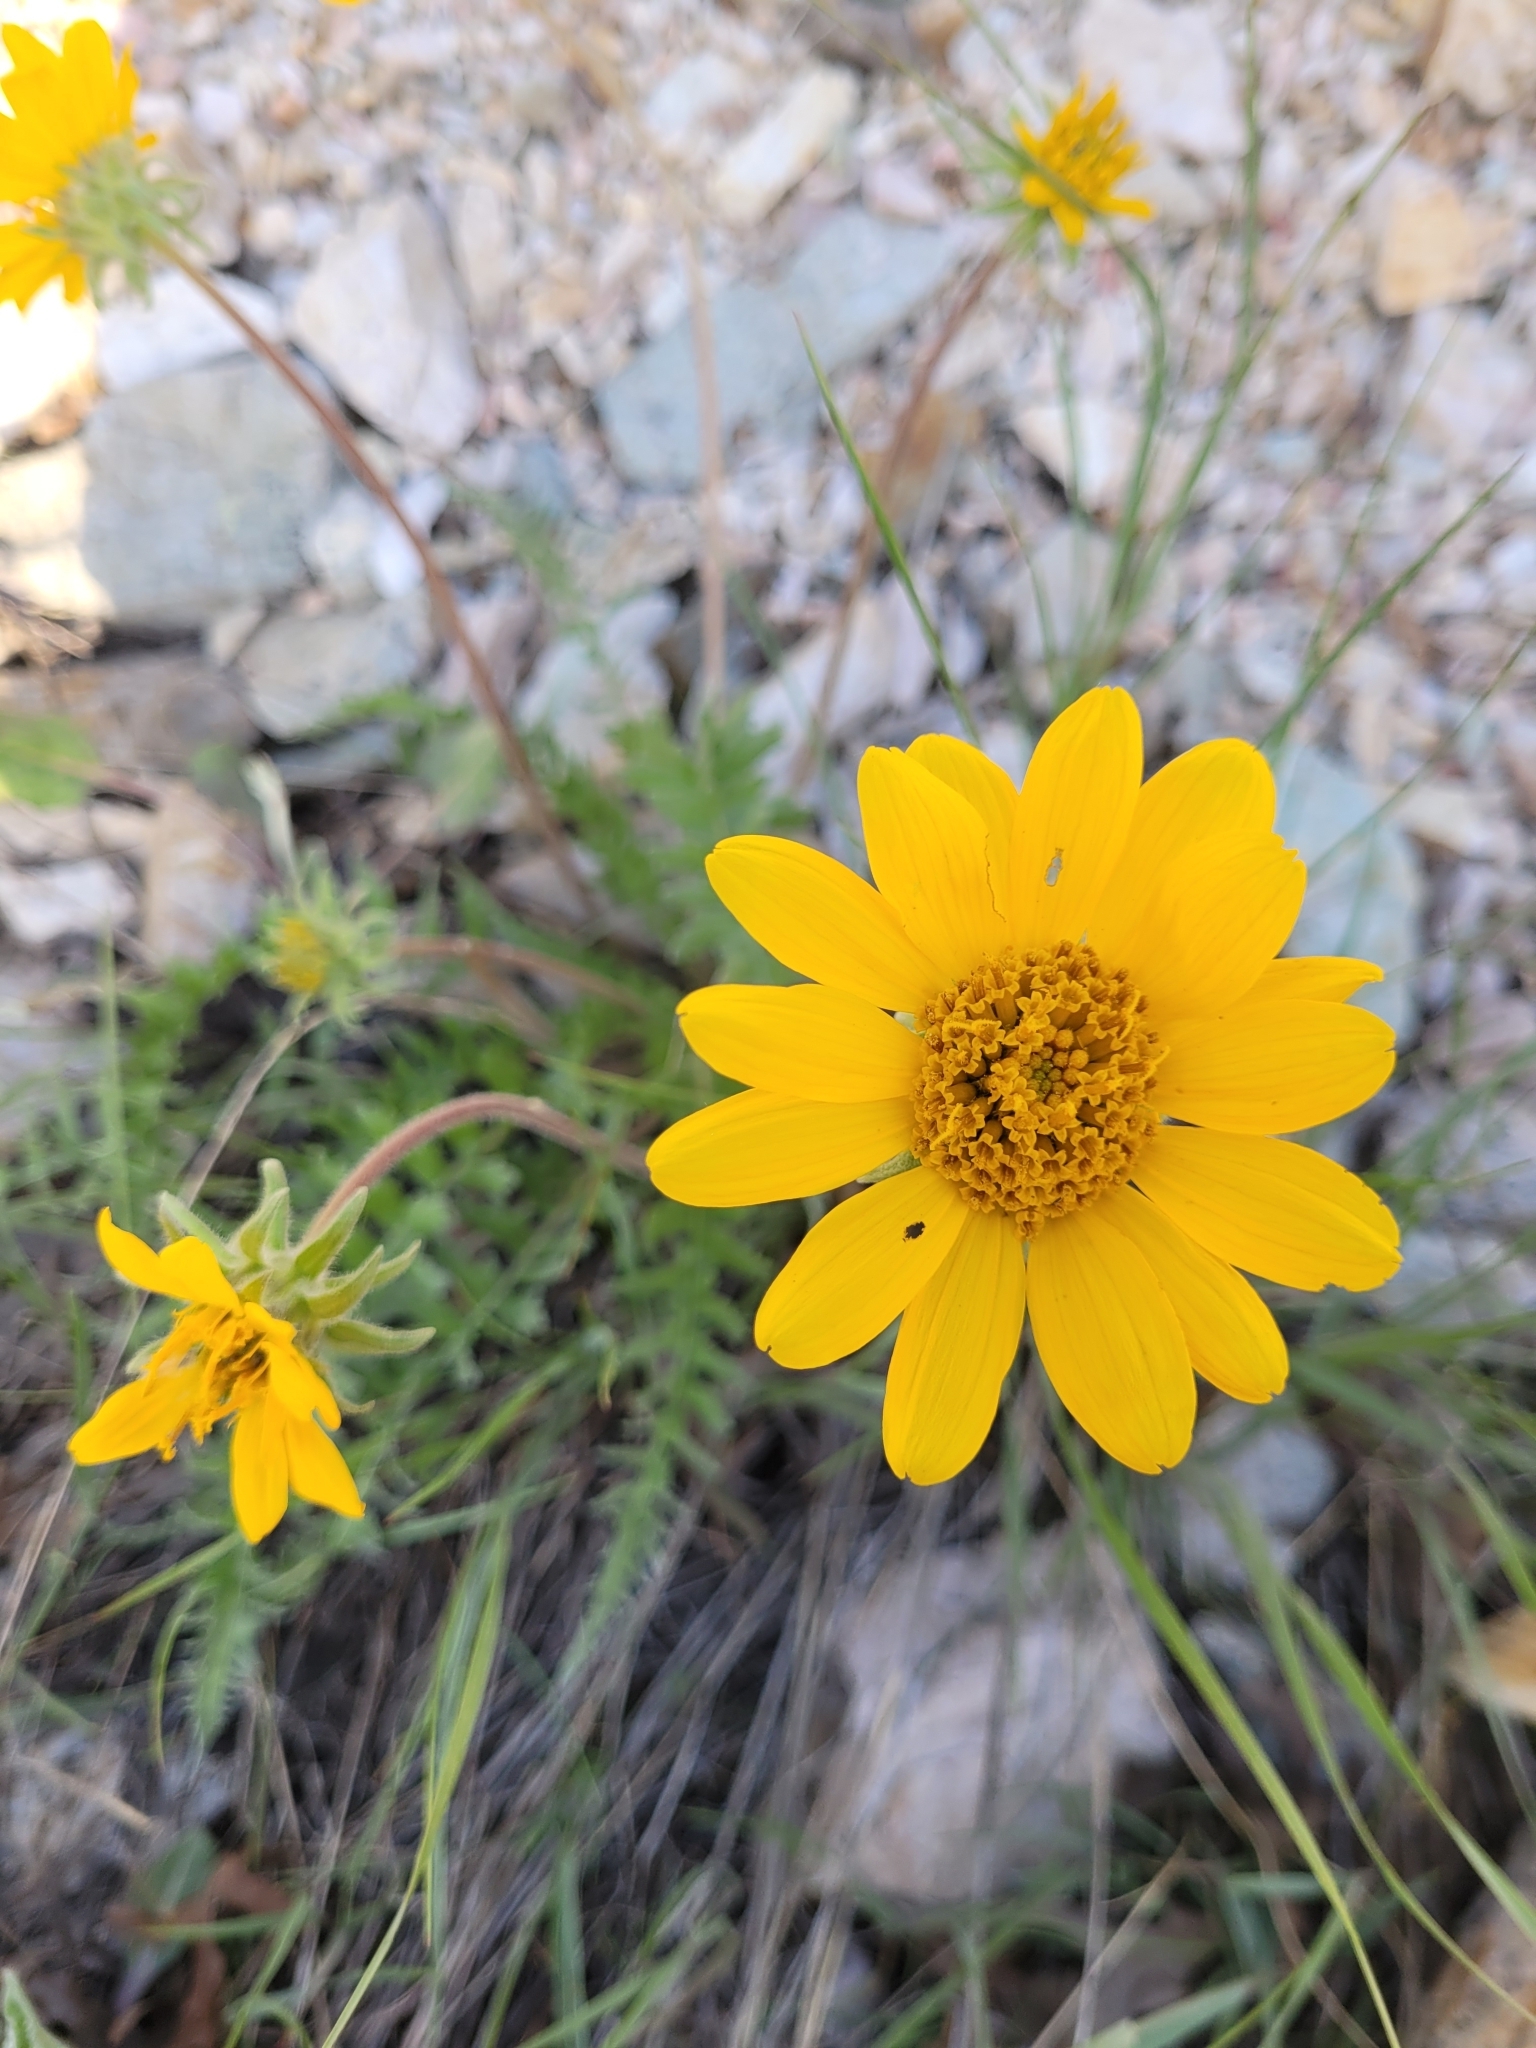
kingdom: Plantae
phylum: Tracheophyta
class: Magnoliopsida
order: Asterales
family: Asteraceae
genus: Balsamorhiza
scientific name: Balsamorhiza hookeri
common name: Hooker's balsamroot
